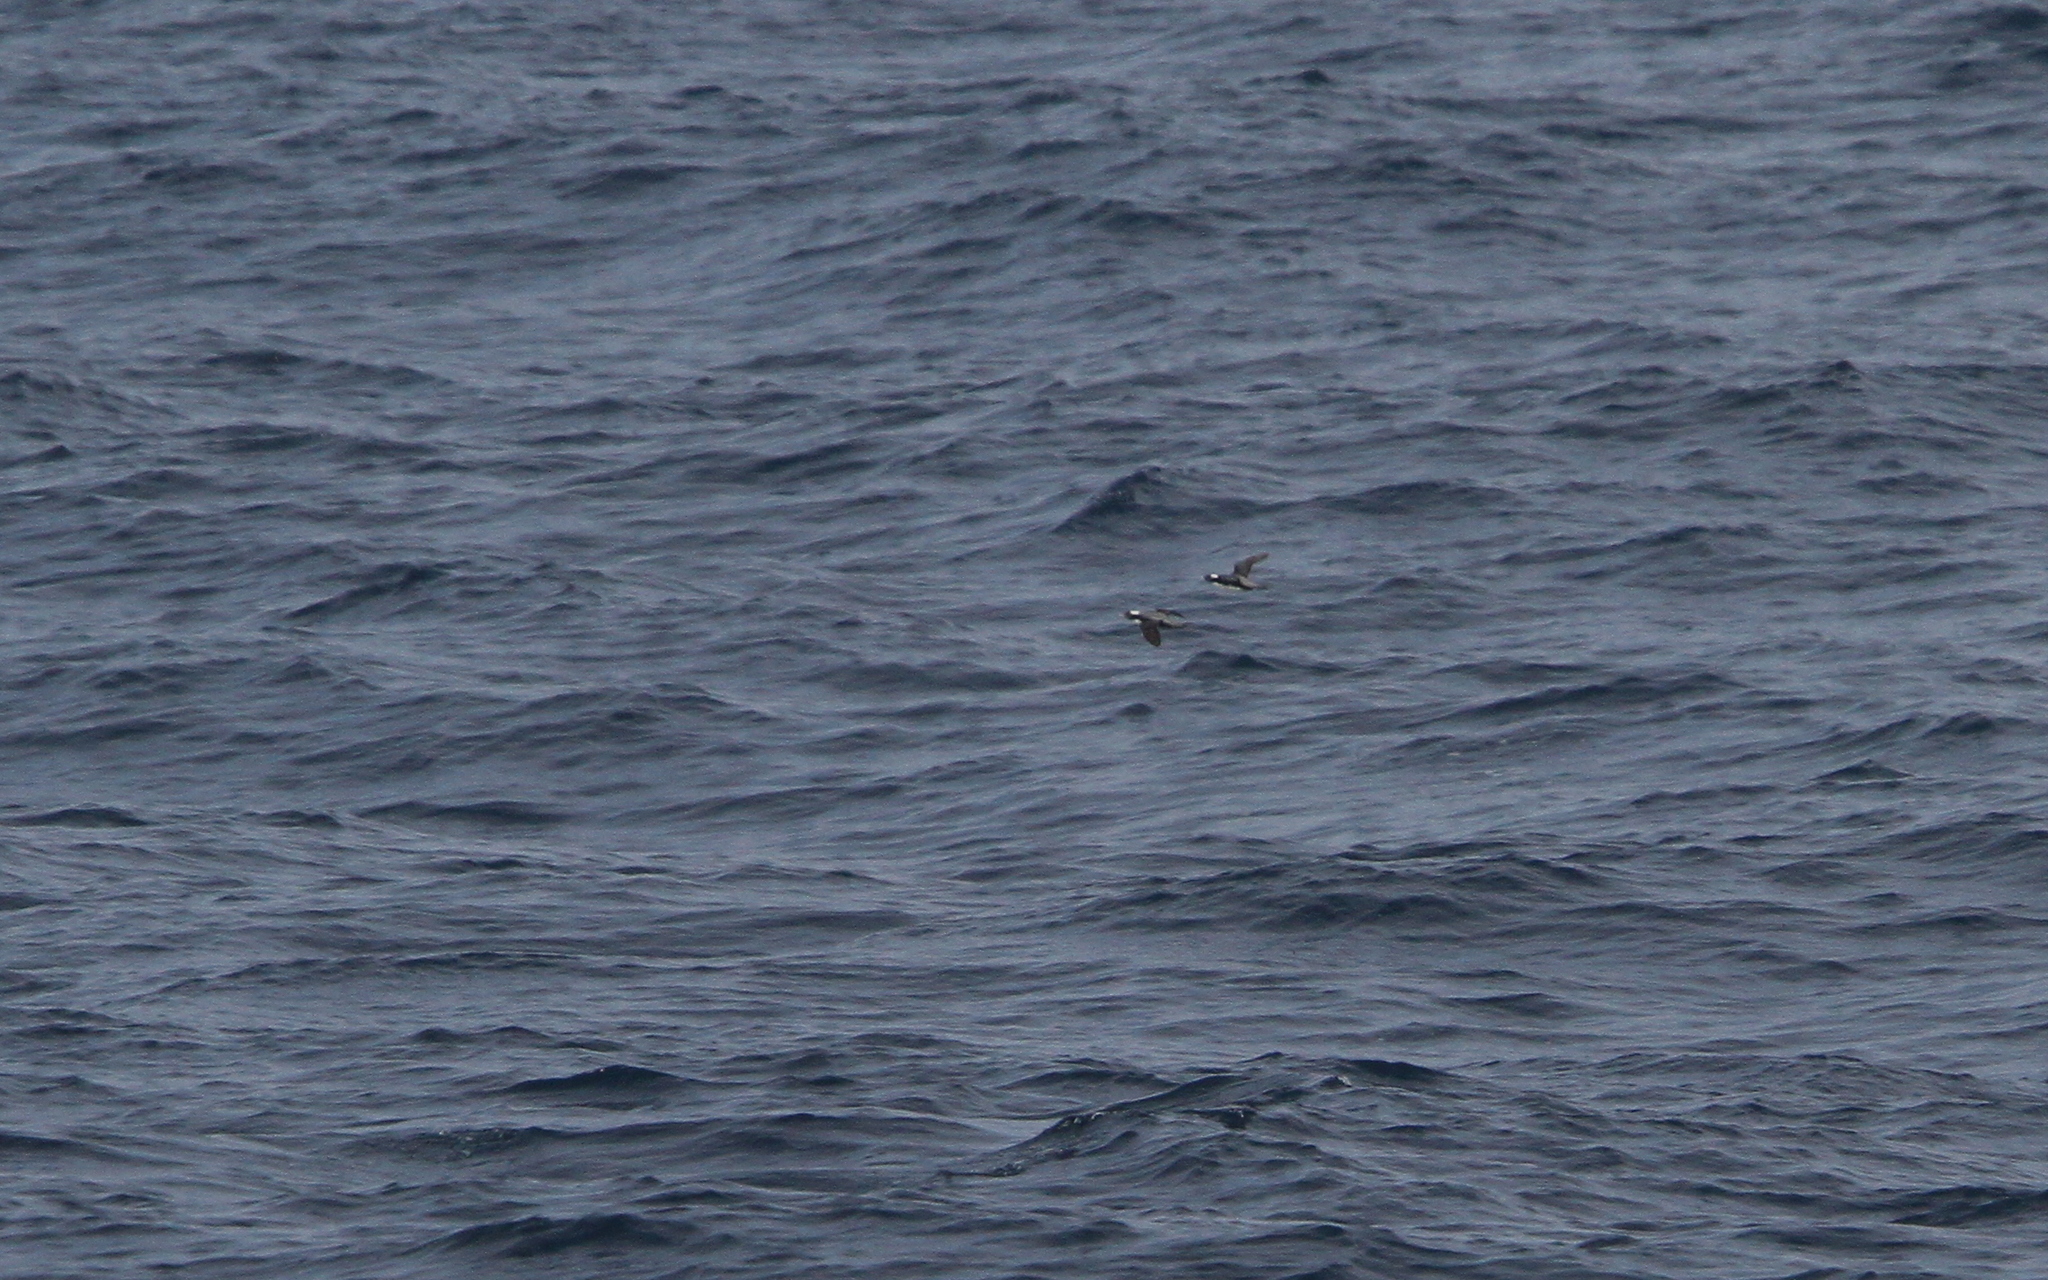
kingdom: Animalia
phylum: Chordata
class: Aves
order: Charadriiformes
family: Alcidae
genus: Synthliboramphus
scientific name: Synthliboramphus wumizusume
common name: Japanese murrelet
